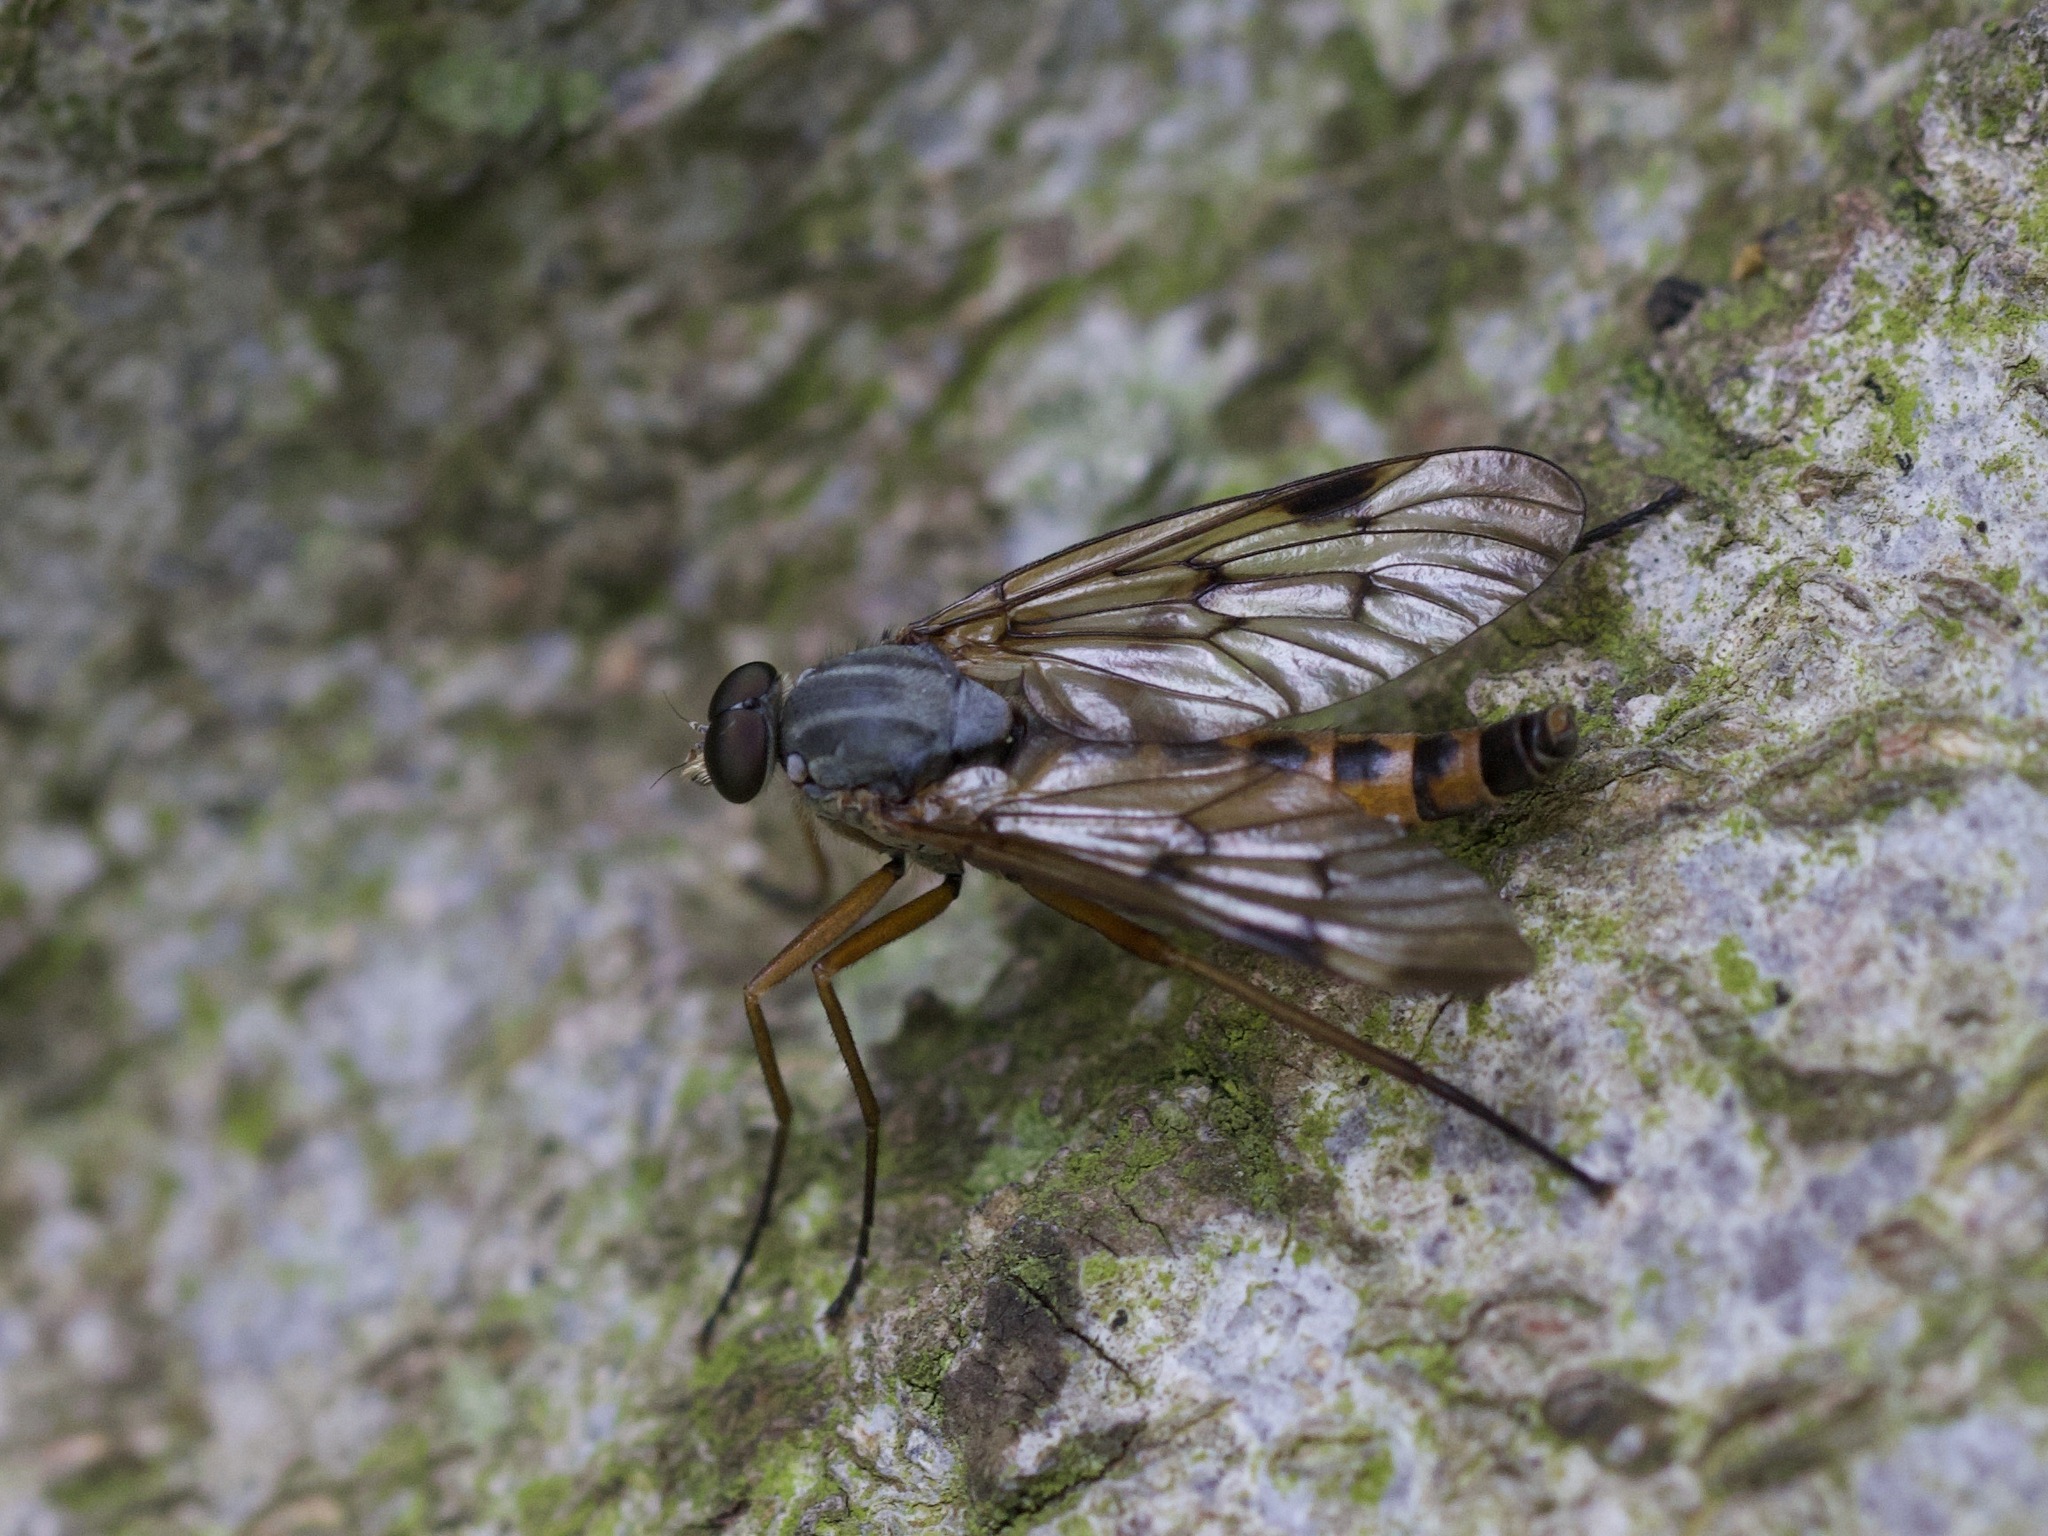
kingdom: Animalia
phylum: Arthropoda
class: Insecta
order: Diptera
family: Rhagionidae
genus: Rhagio
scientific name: Rhagio scolopacea
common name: Downlooker snipefly
